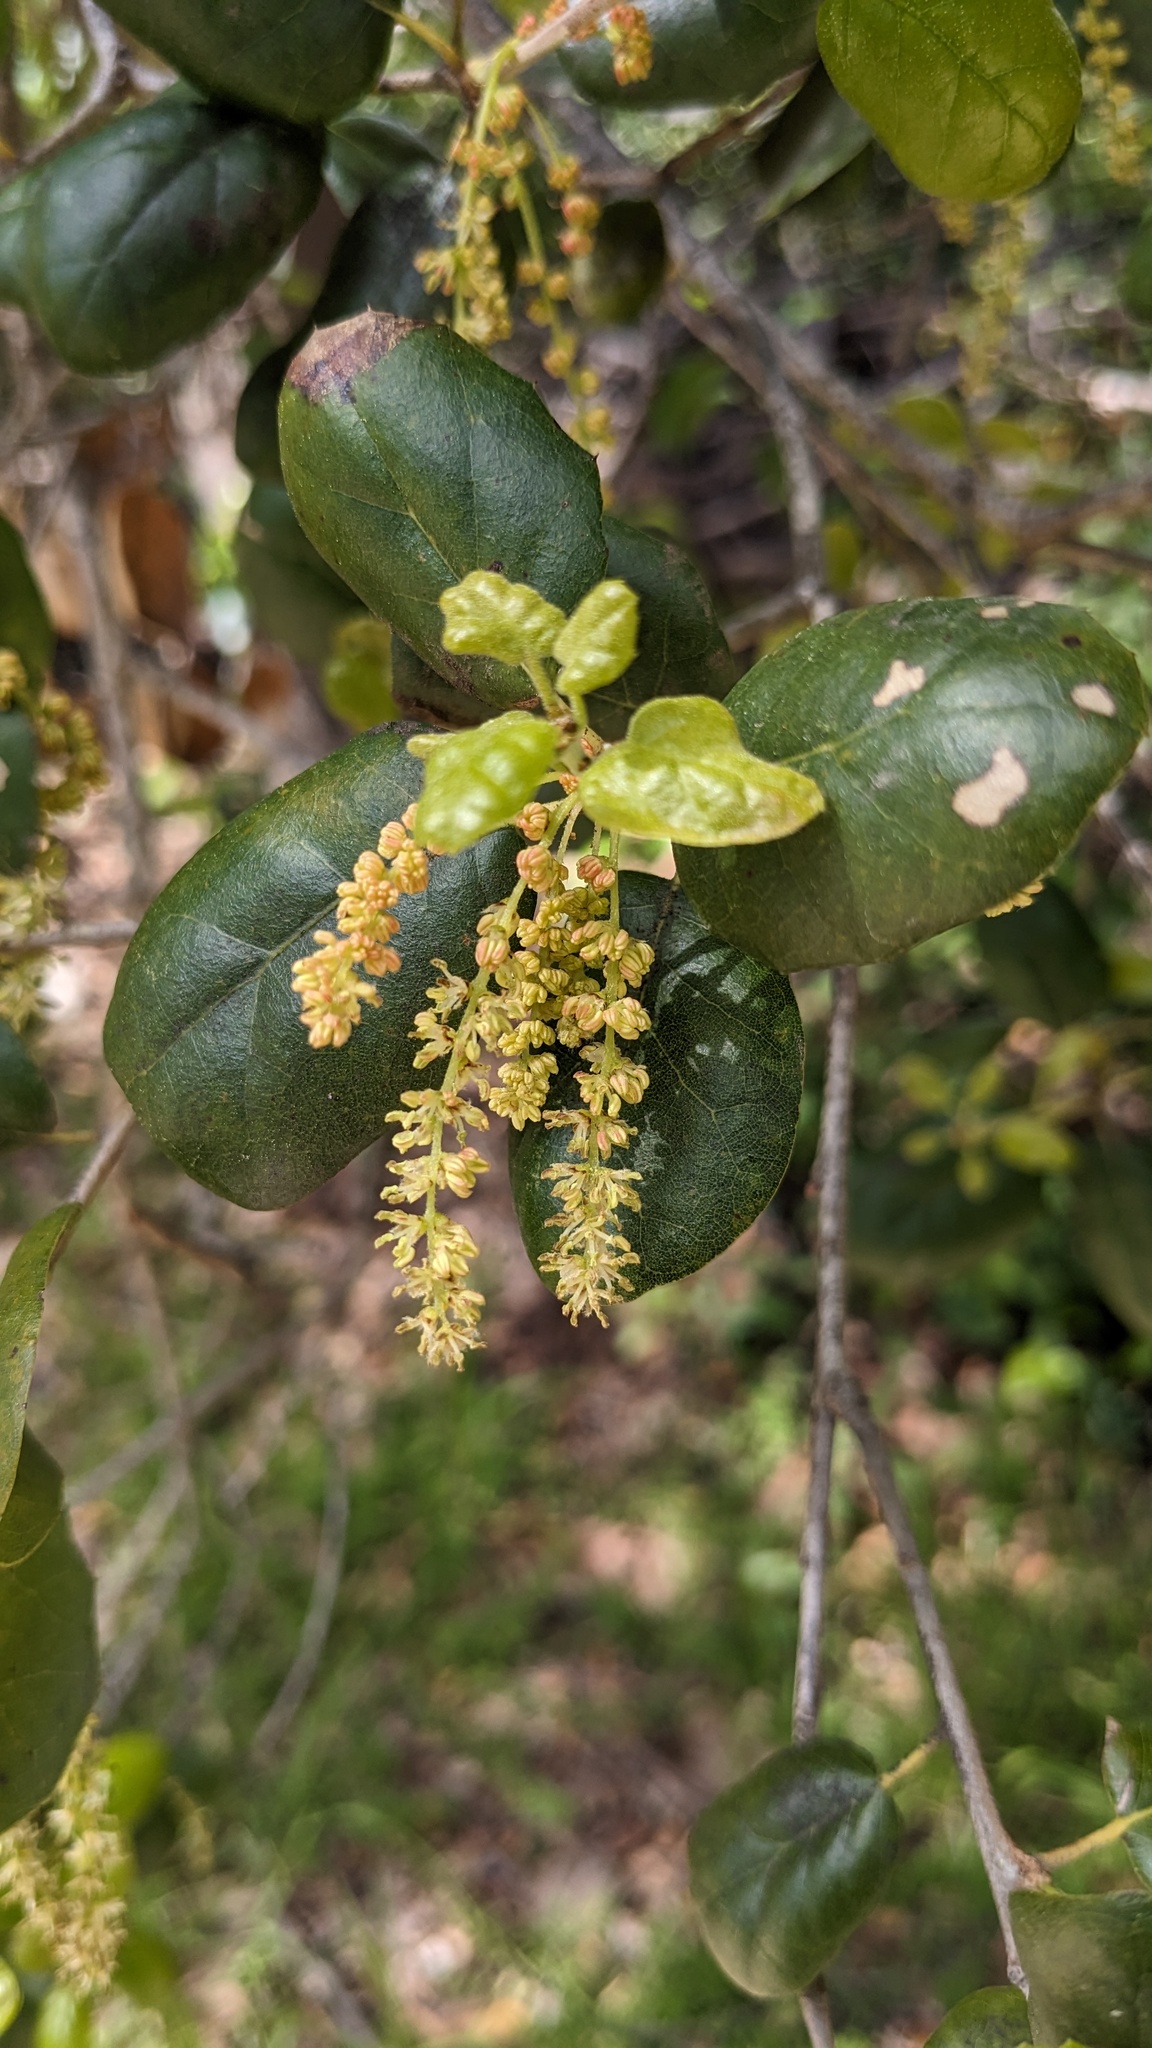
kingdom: Plantae
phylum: Tracheophyta
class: Magnoliopsida
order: Fagales
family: Fagaceae
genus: Quercus
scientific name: Quercus agrifolia
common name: California live oak
